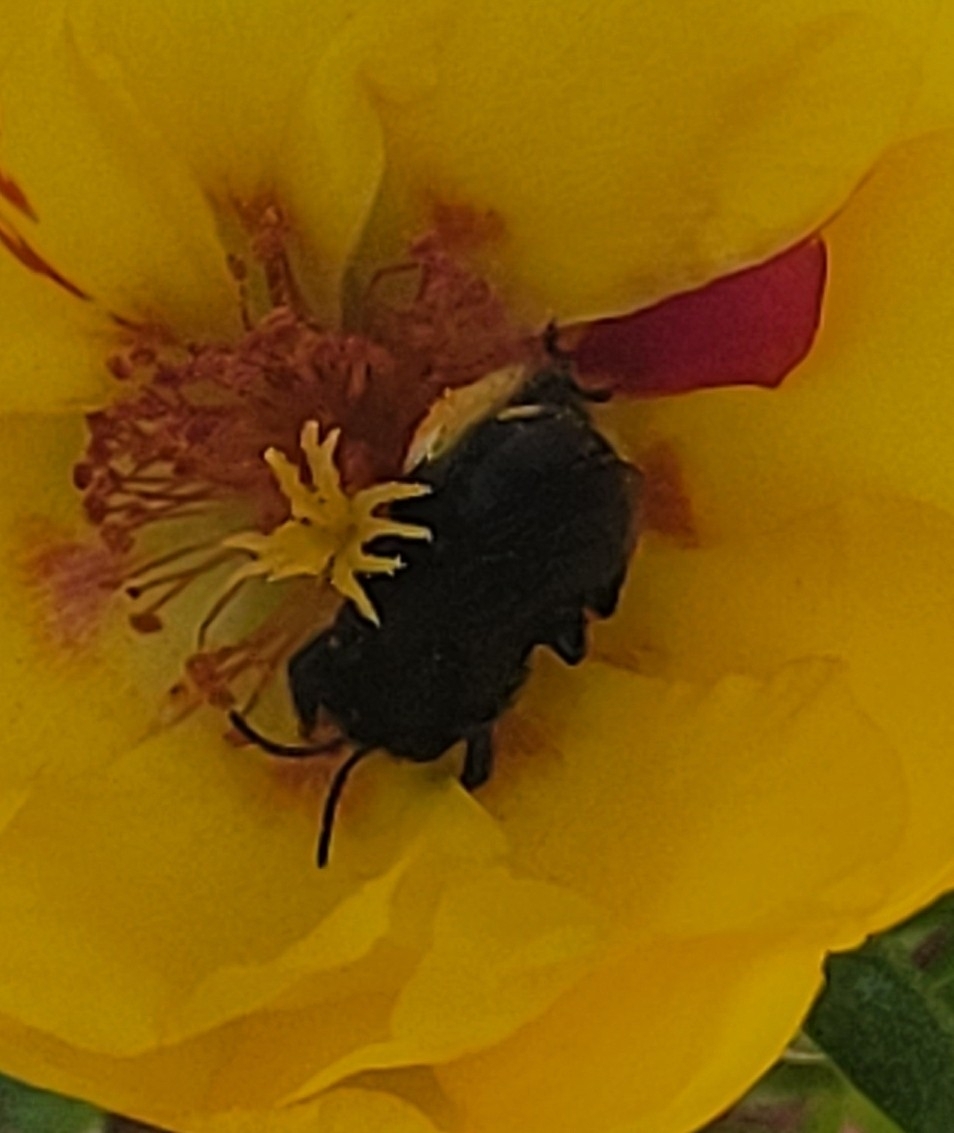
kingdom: Animalia
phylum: Arthropoda
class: Insecta
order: Hymenoptera
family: Apidae
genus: Melissodes
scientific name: Melissodes bimaculatus
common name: Two-spotted long-horned bee
